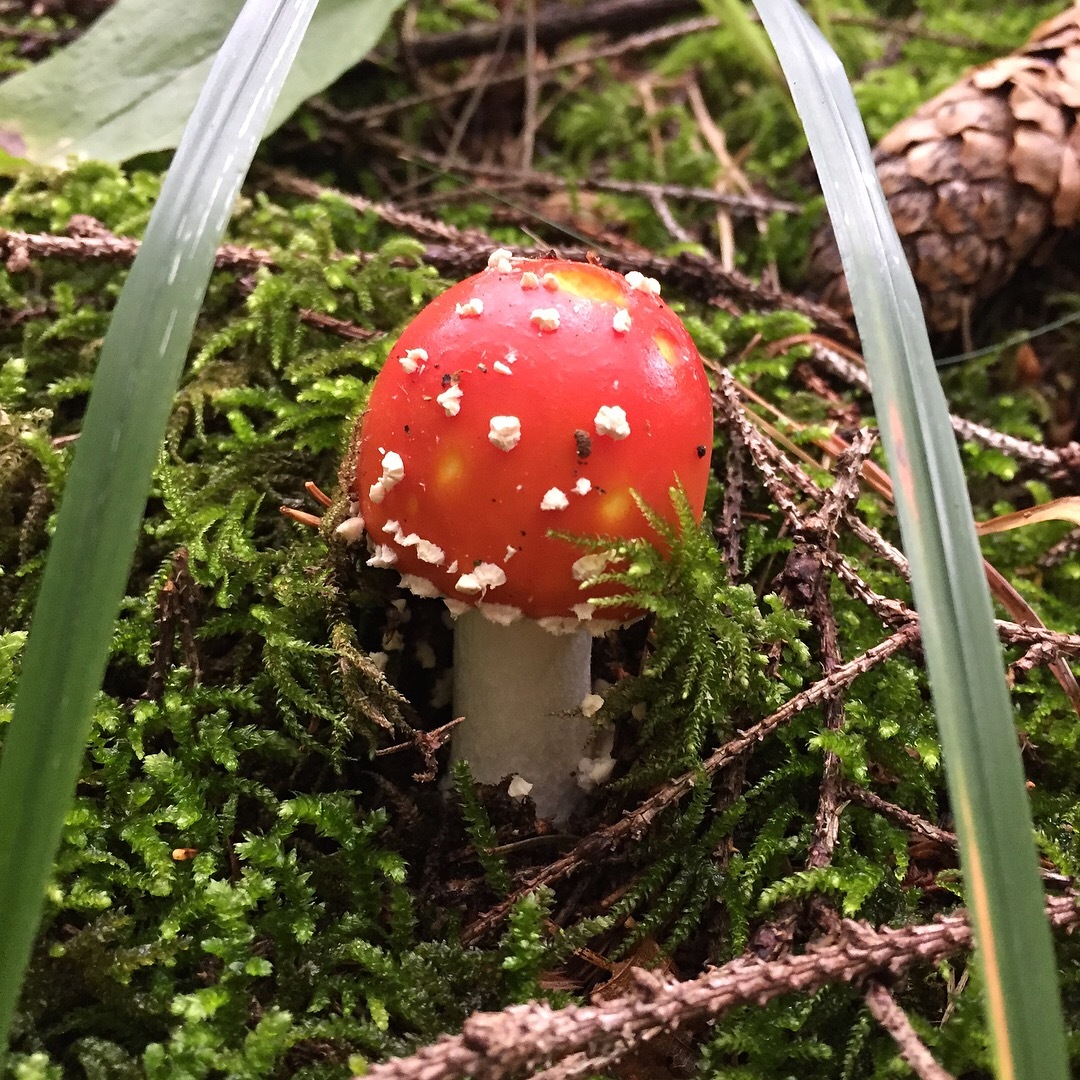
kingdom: Fungi
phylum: Basidiomycota
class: Agaricomycetes
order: Agaricales
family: Amanitaceae
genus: Amanita
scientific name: Amanita muscaria
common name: Fly agaric
